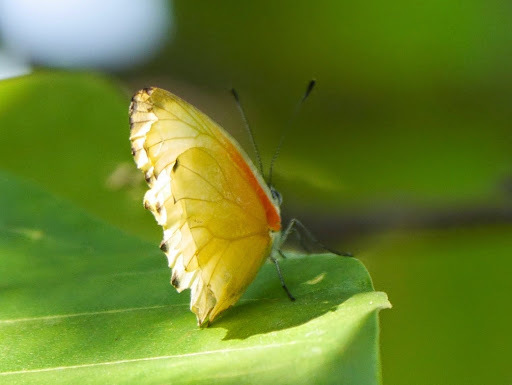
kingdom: Animalia
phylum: Arthropoda
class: Insecta
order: Lepidoptera
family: Pieridae
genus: Mylothris
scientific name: Mylothris agathina
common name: Eastern dotted border
